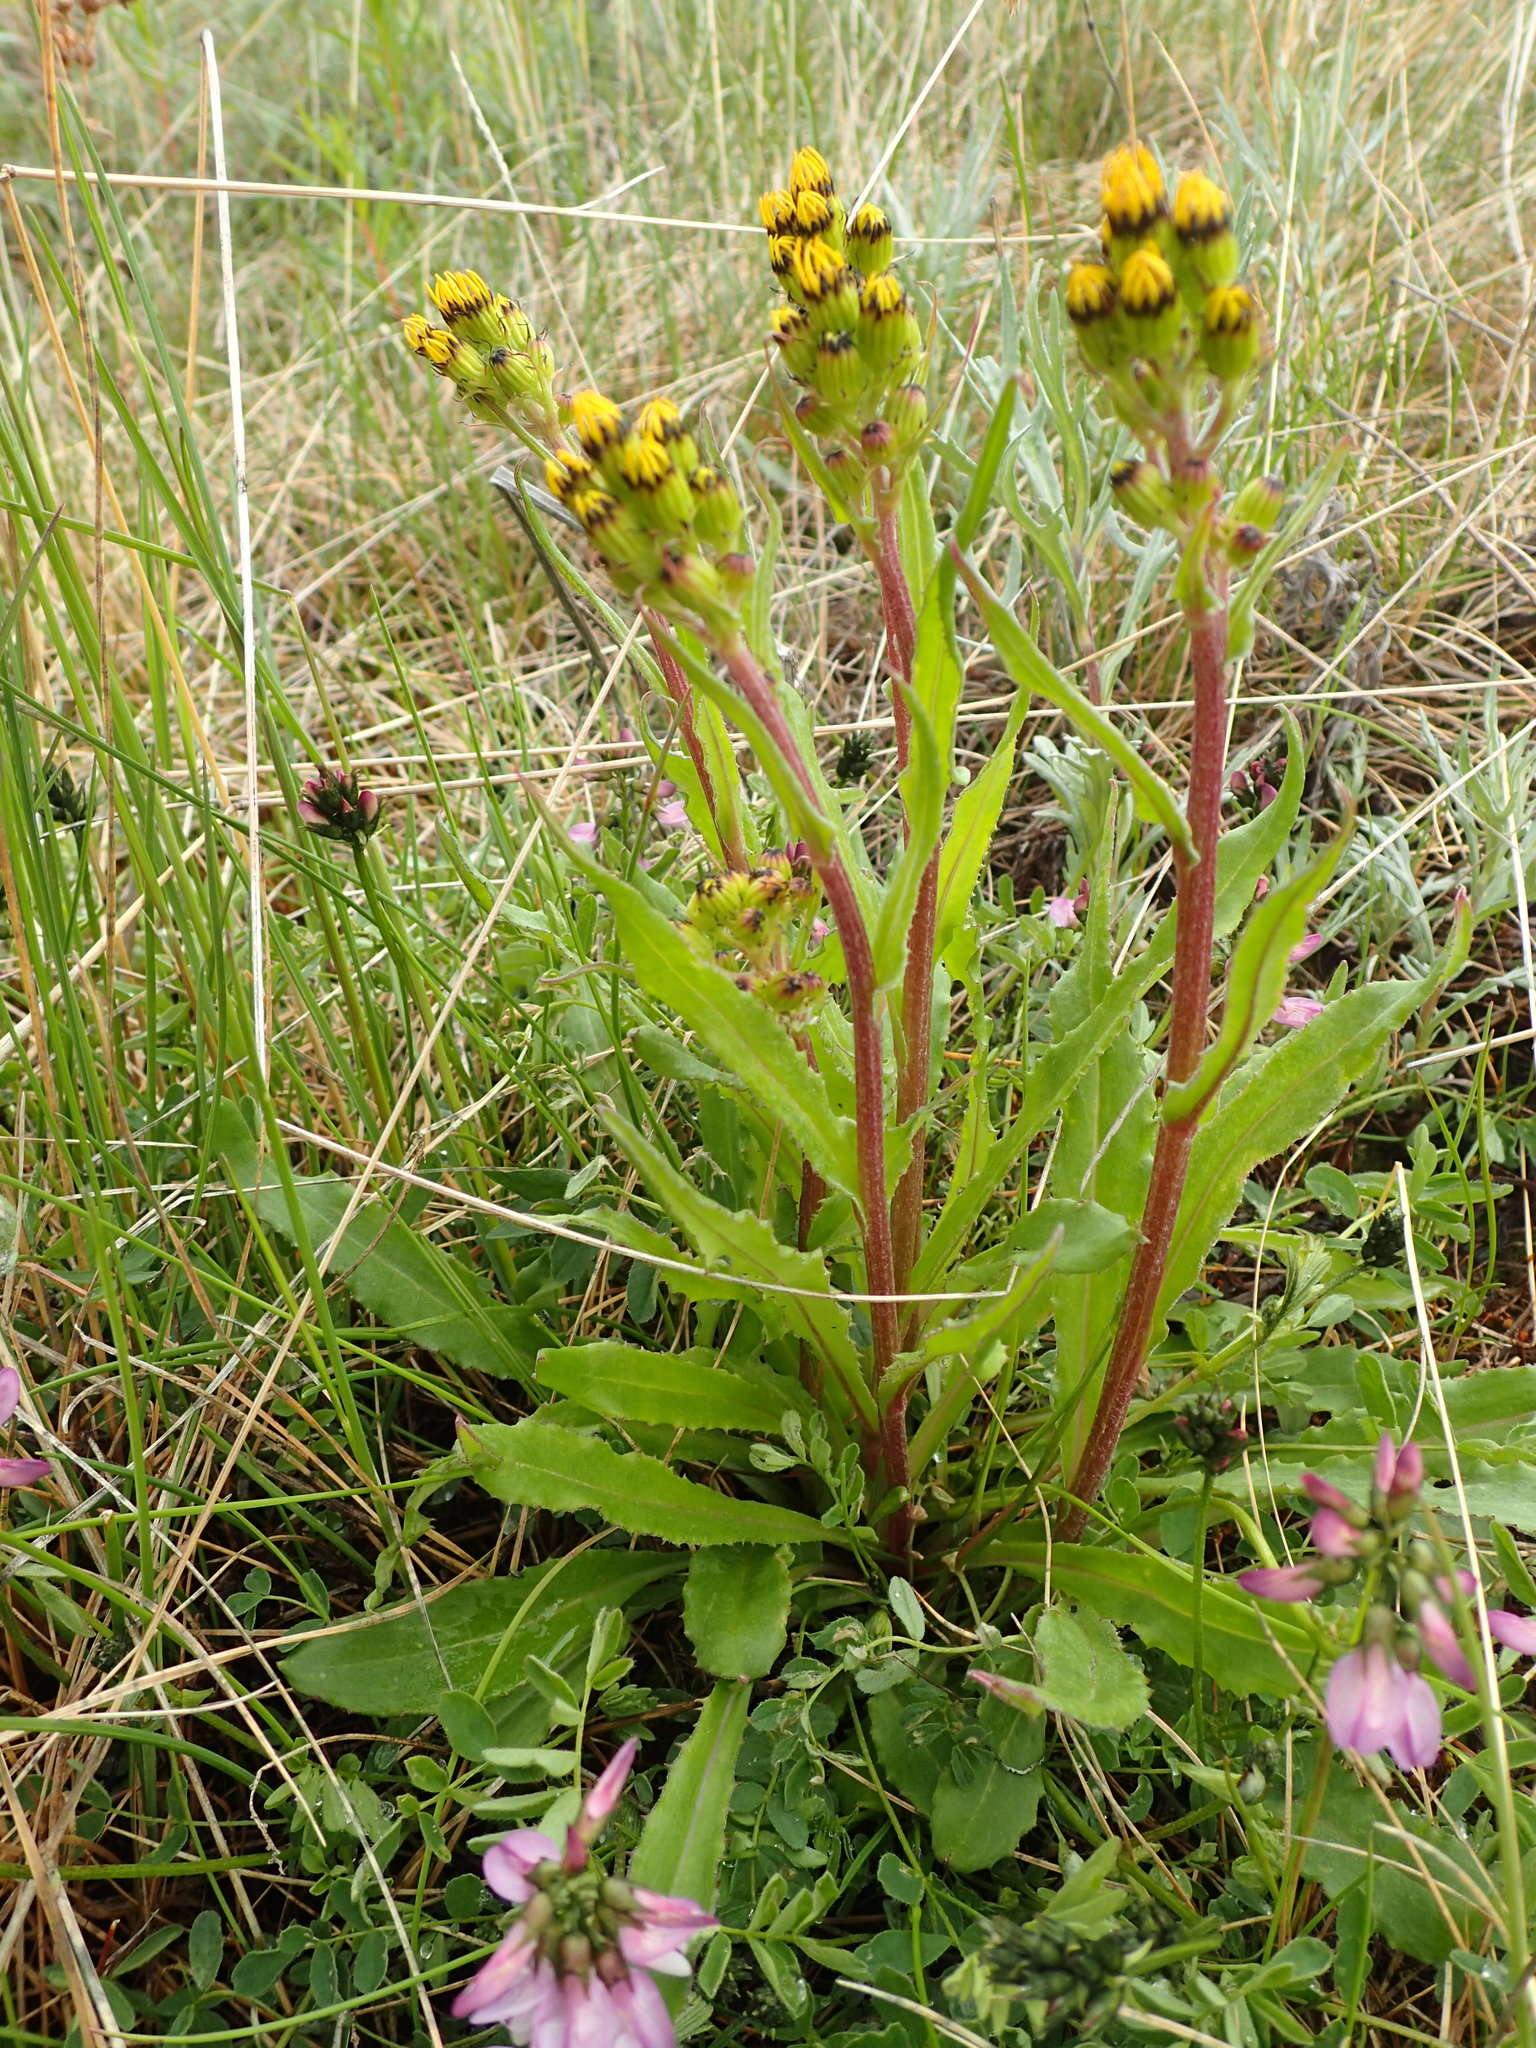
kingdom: Plantae
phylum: Tracheophyta
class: Magnoliopsida
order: Asterales
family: Asteraceae
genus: Senecio
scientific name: Senecio lugens
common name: Black-tip groundsel
